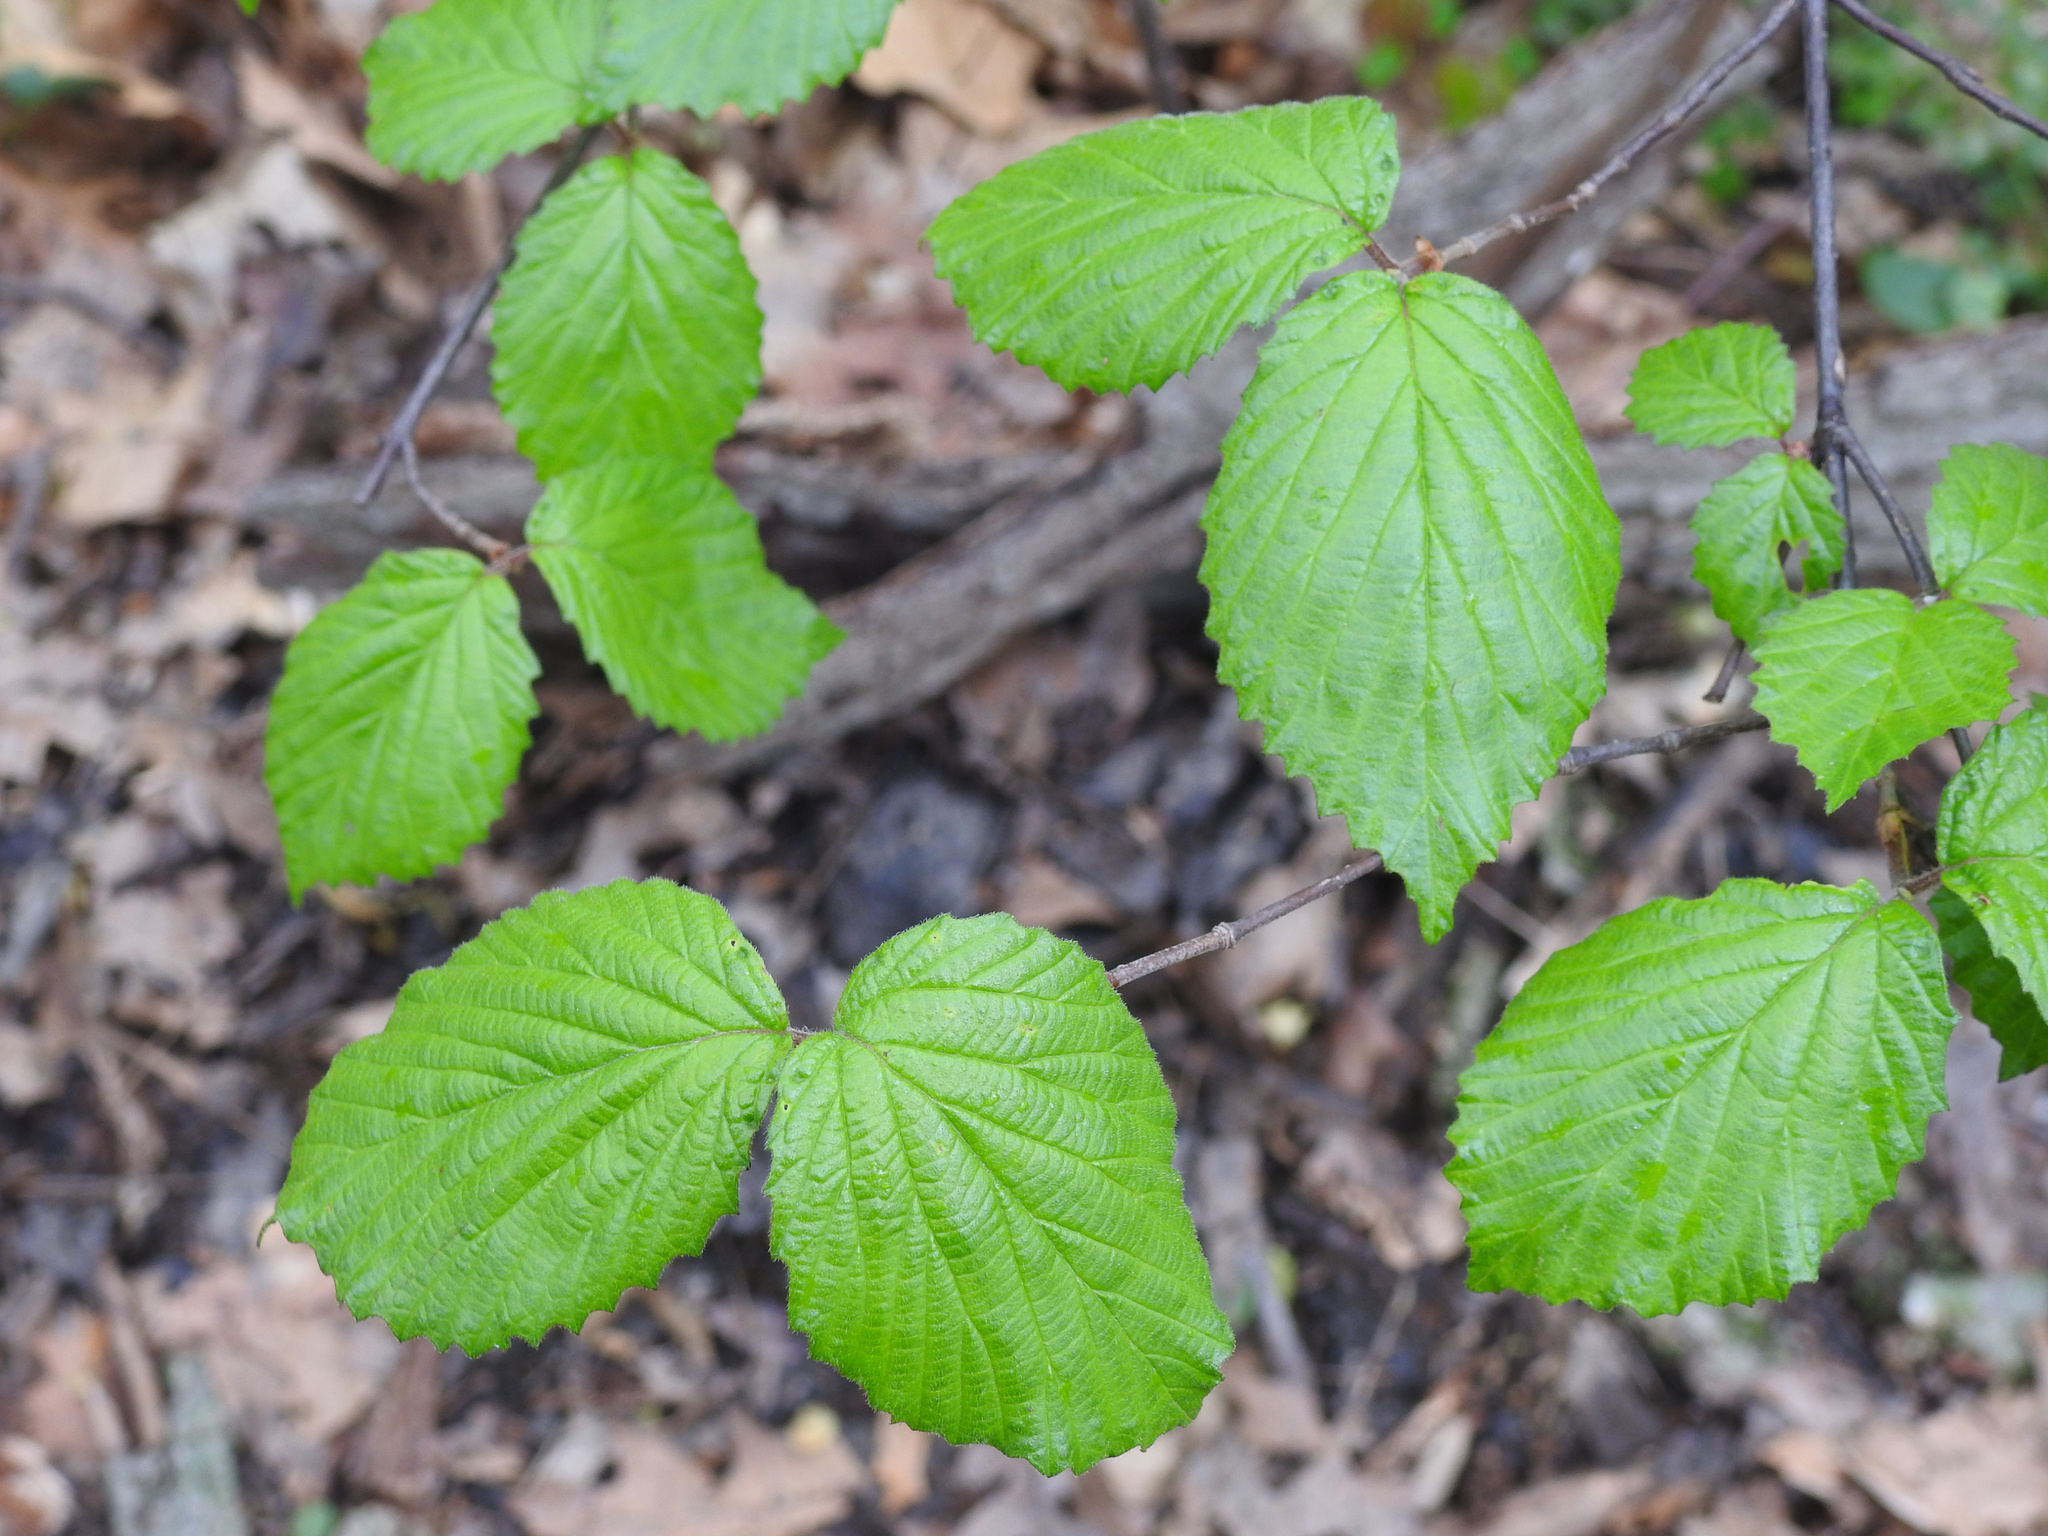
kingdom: Plantae
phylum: Tracheophyta
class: Magnoliopsida
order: Dipsacales
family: Viburnaceae
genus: Viburnum
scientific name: Viburnum dilatatum
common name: Linden arrowwood
